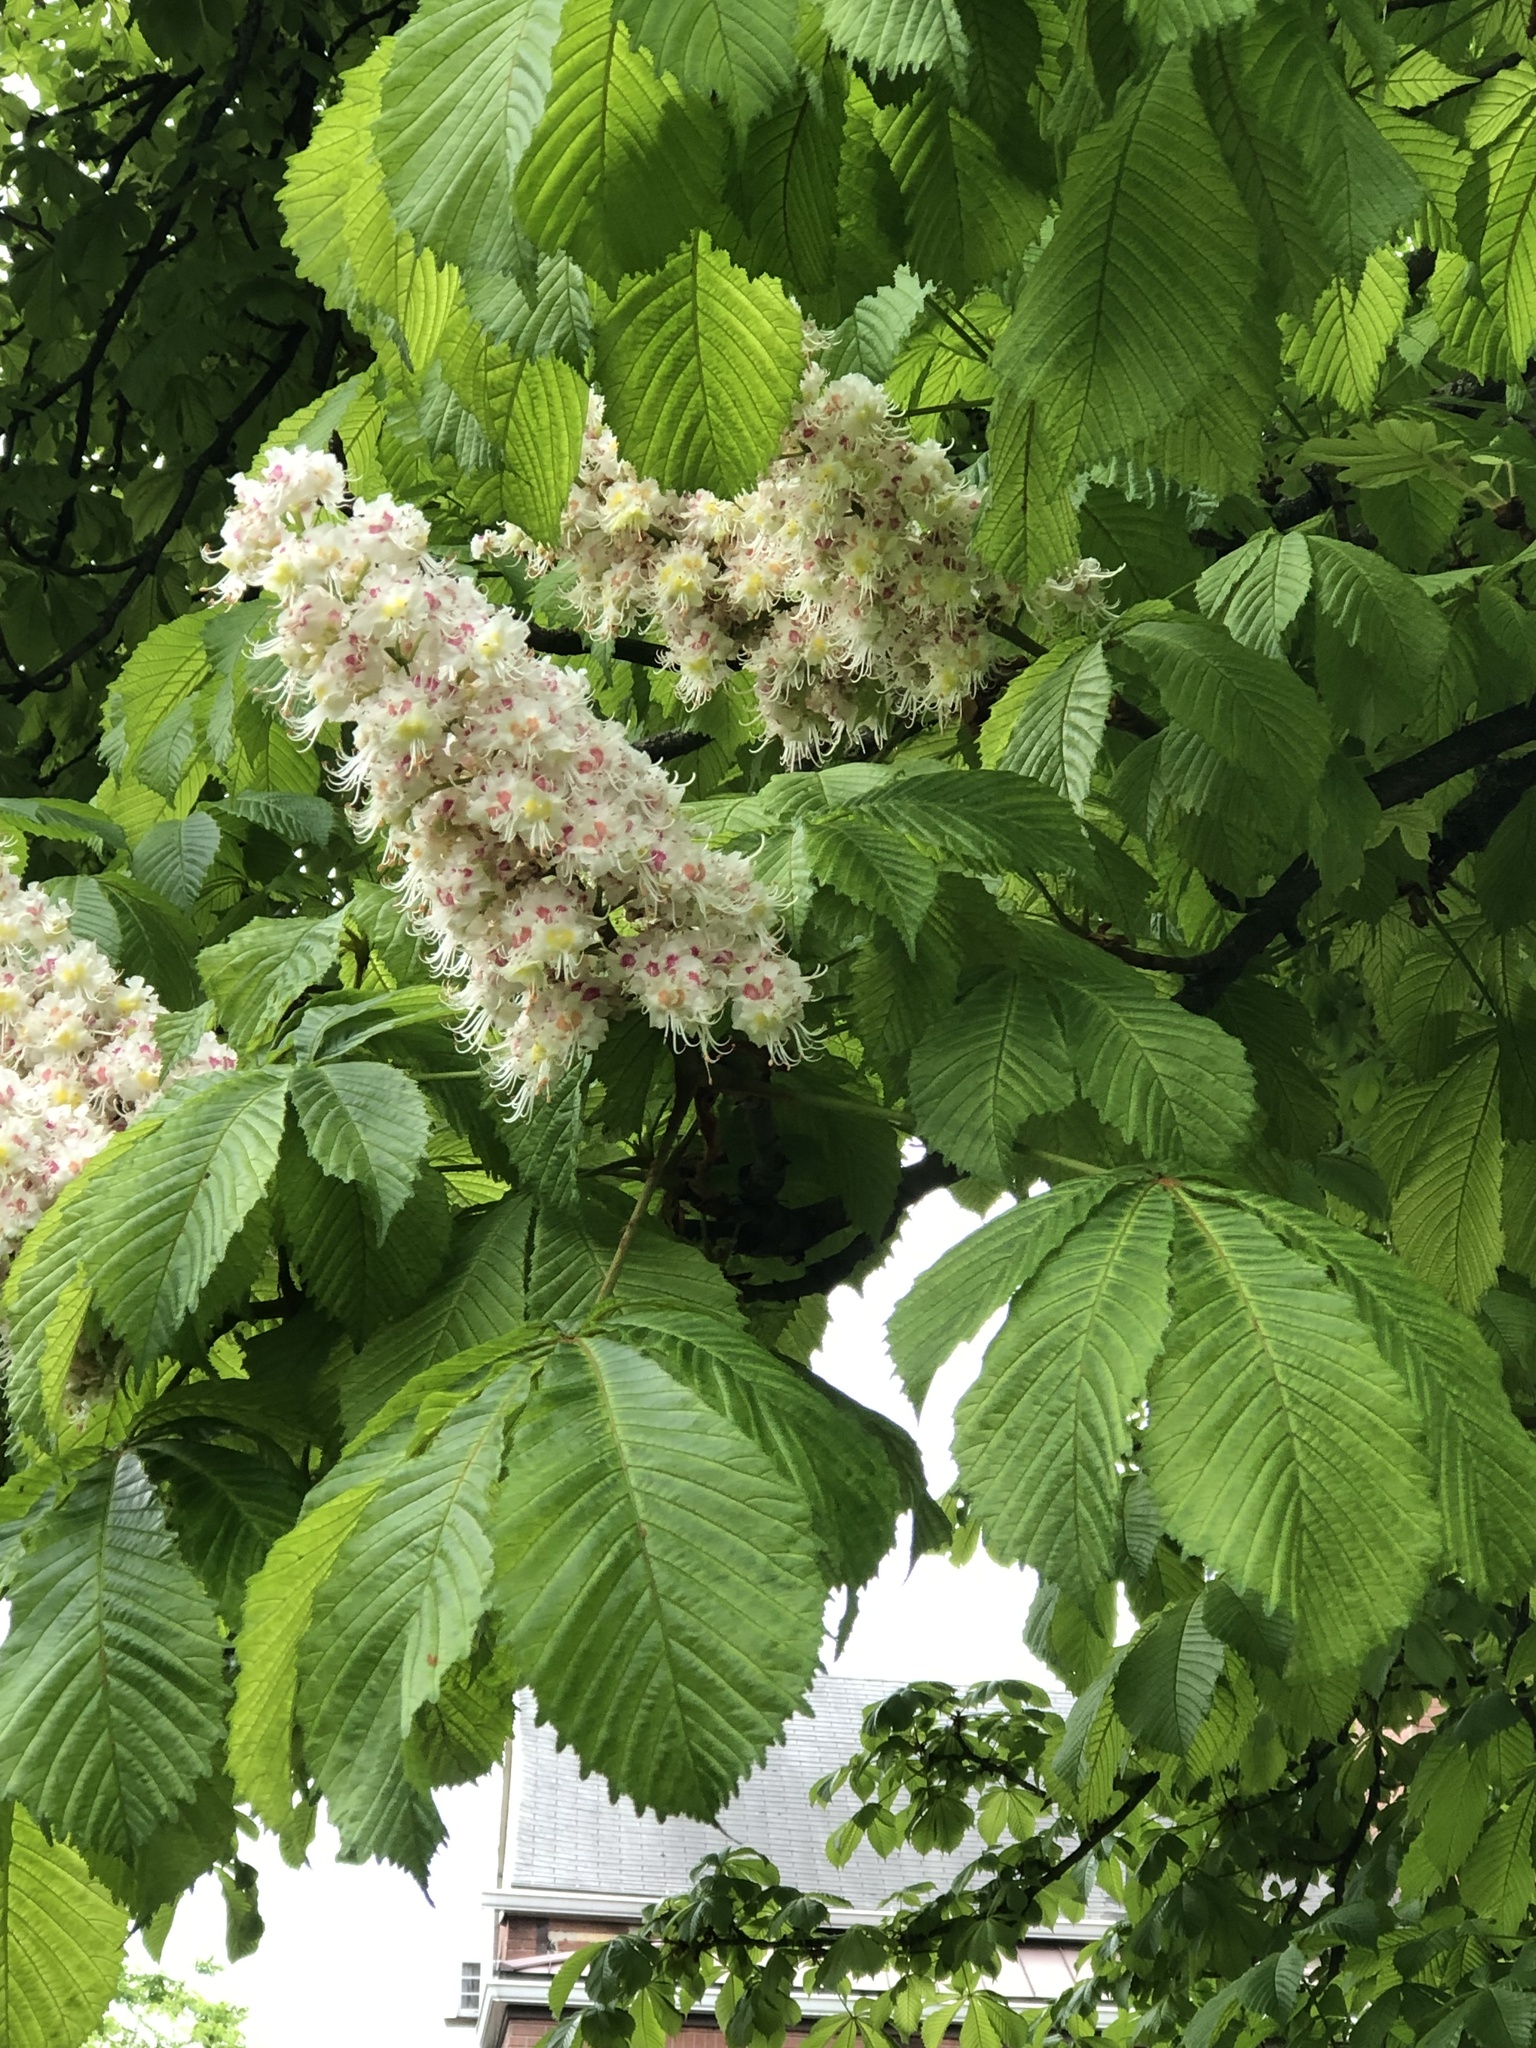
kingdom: Plantae
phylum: Tracheophyta
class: Magnoliopsida
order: Sapindales
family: Sapindaceae
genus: Aesculus
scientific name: Aesculus hippocastanum
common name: Horse-chestnut
